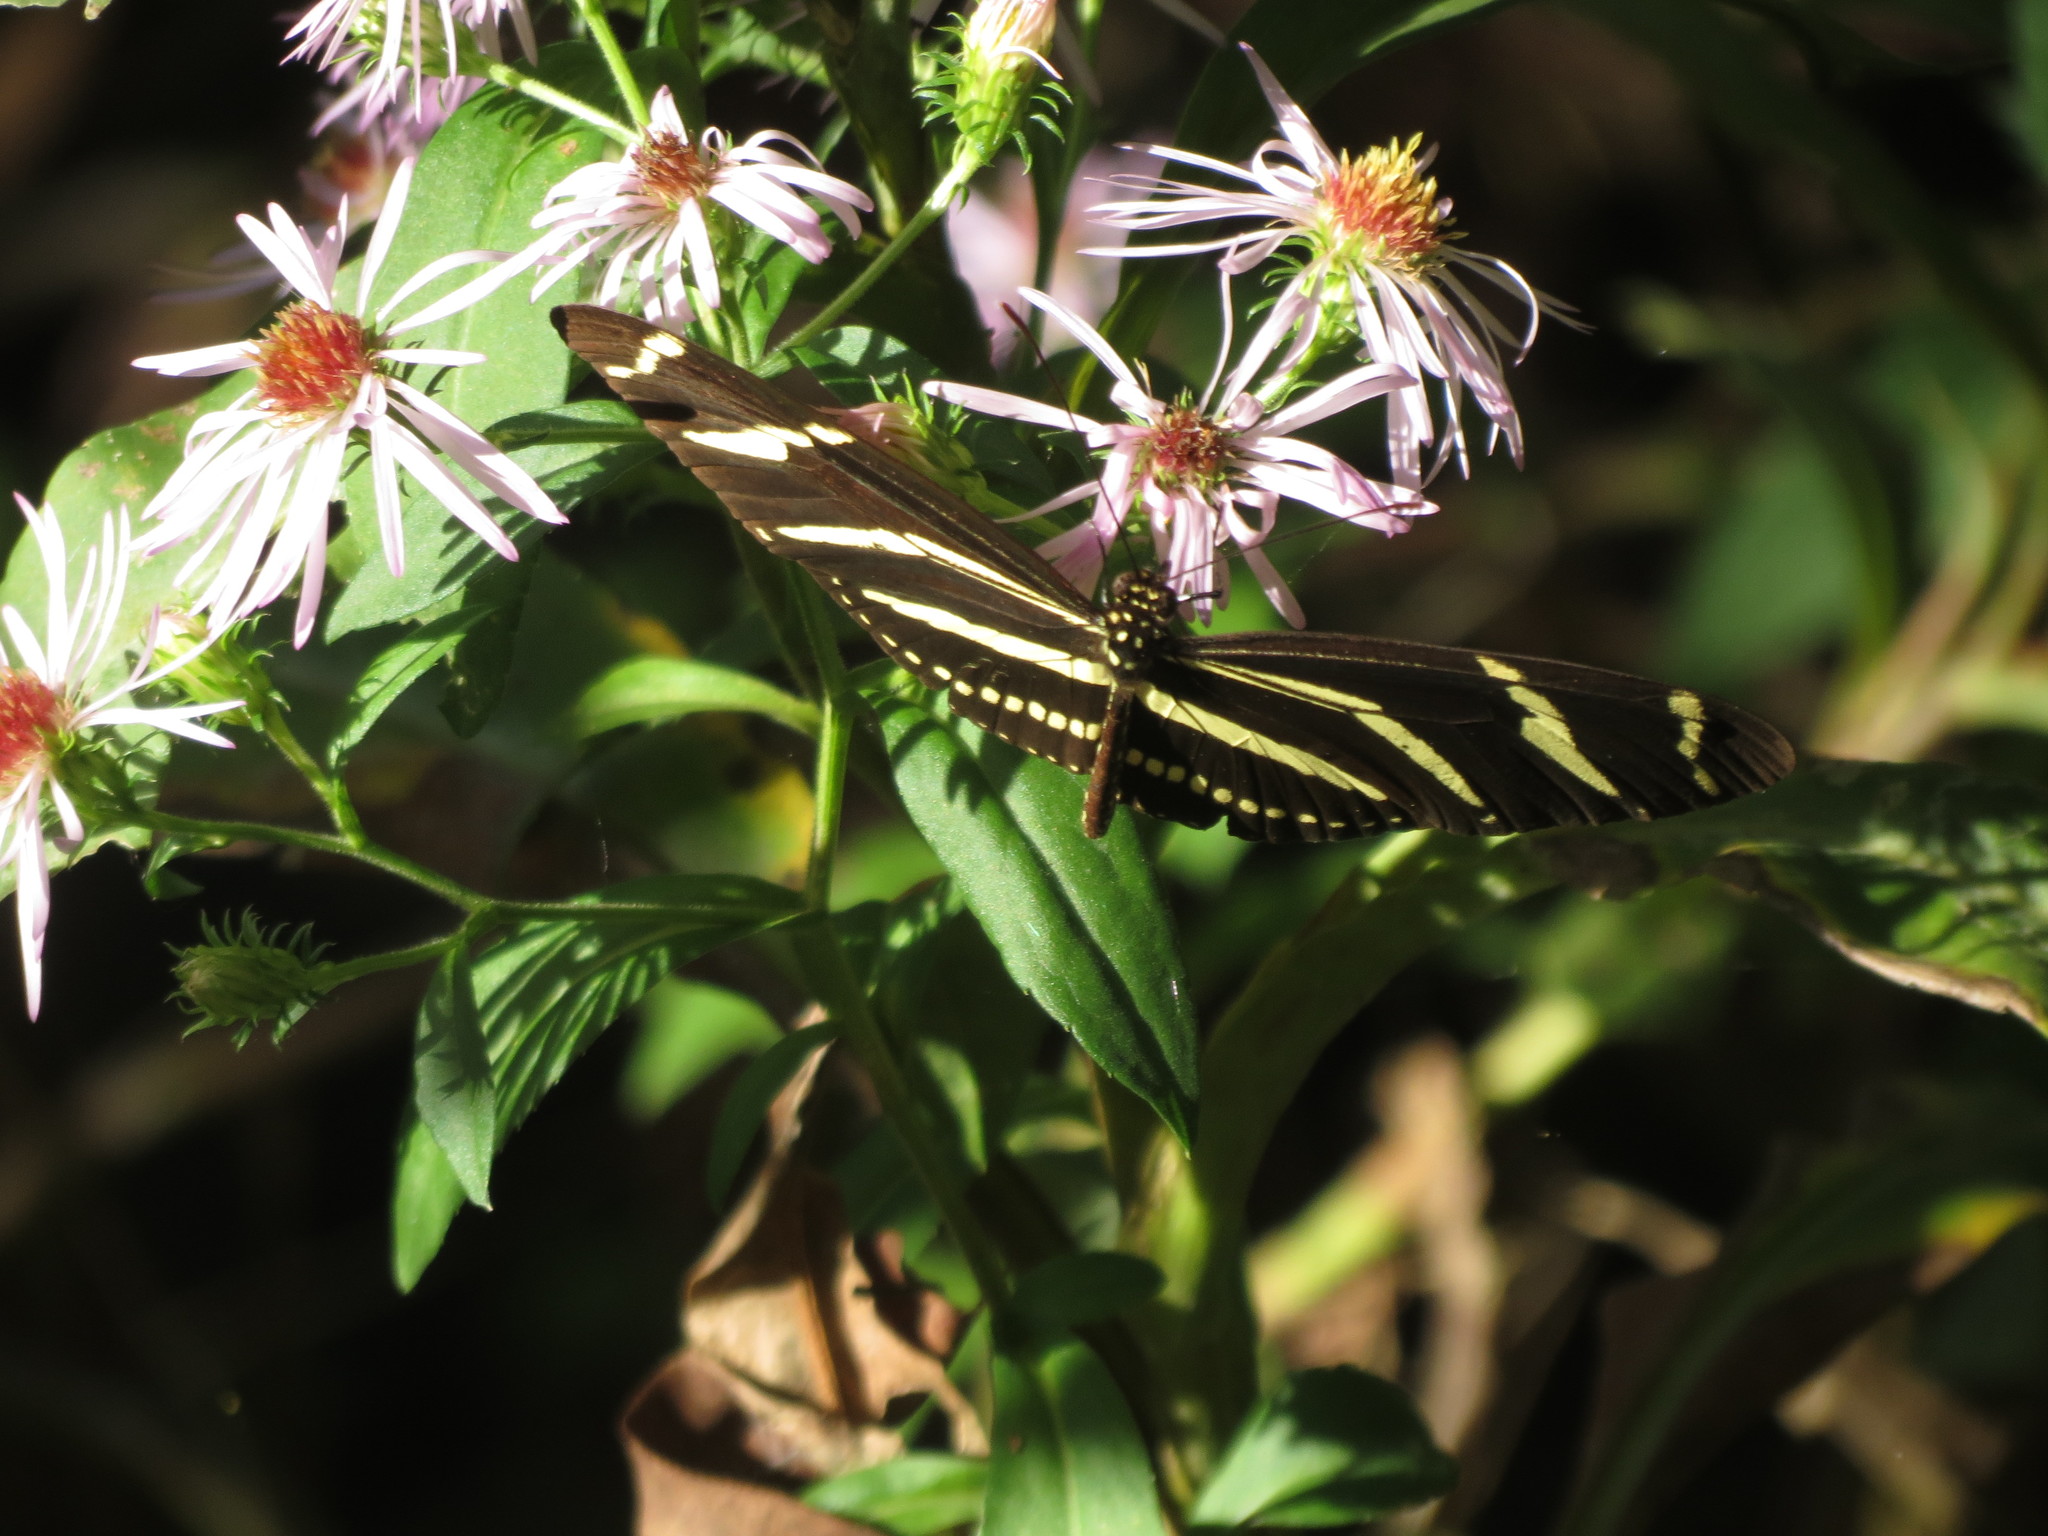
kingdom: Animalia
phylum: Arthropoda
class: Insecta
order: Lepidoptera
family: Nymphalidae
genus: Heliconius
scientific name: Heliconius charithonia
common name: Zebra long wing
